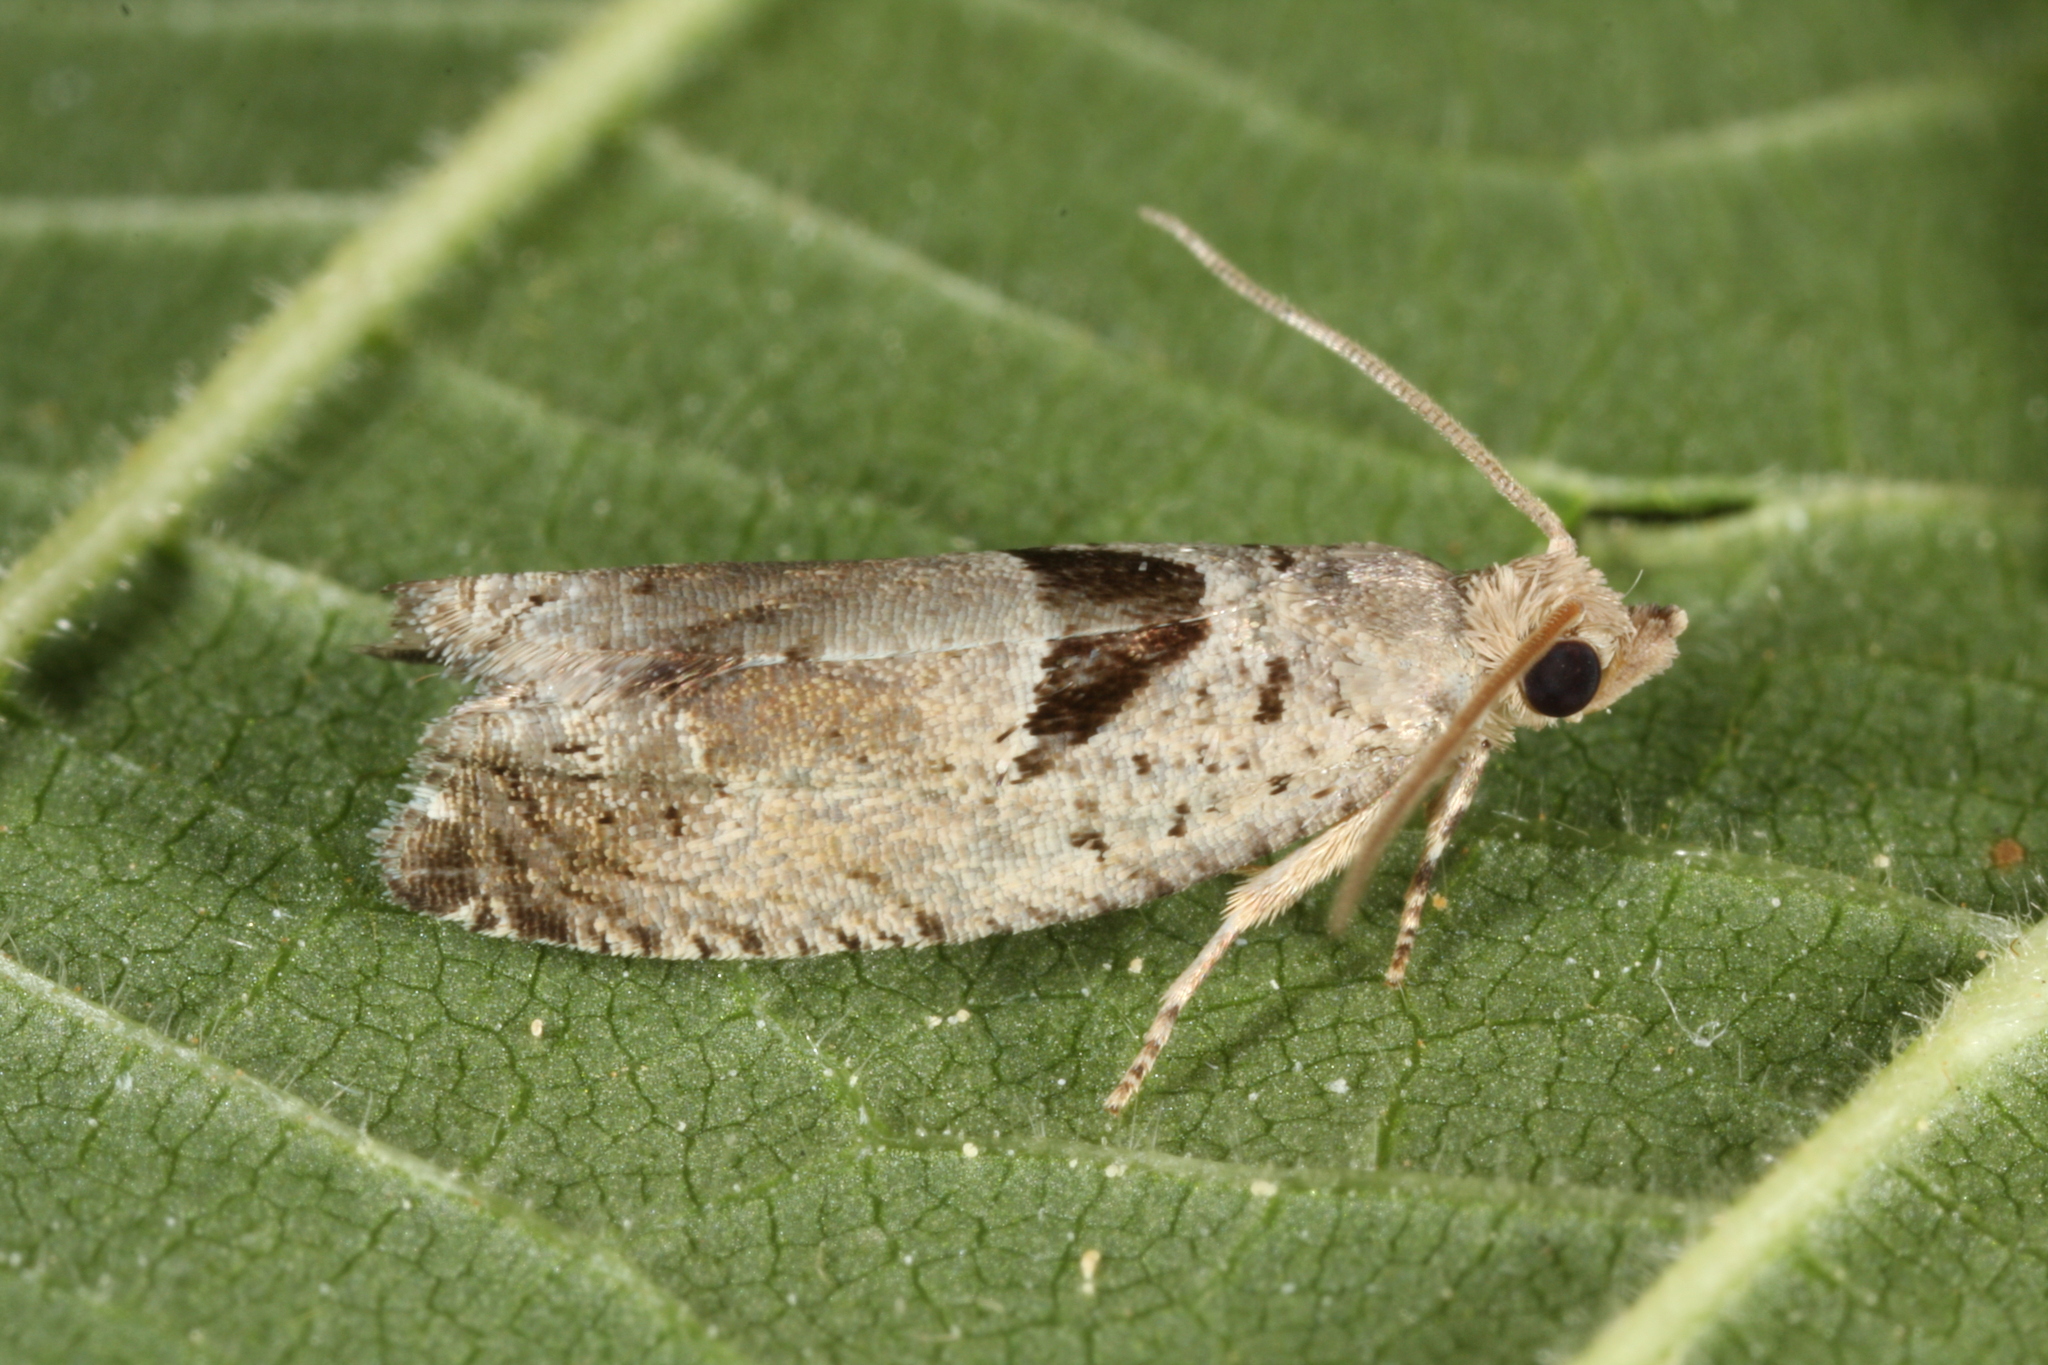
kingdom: Animalia
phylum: Arthropoda
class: Insecta
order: Lepidoptera
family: Tortricidae
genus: Epinotia
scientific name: Epinotia ramella
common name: Small birch bell
